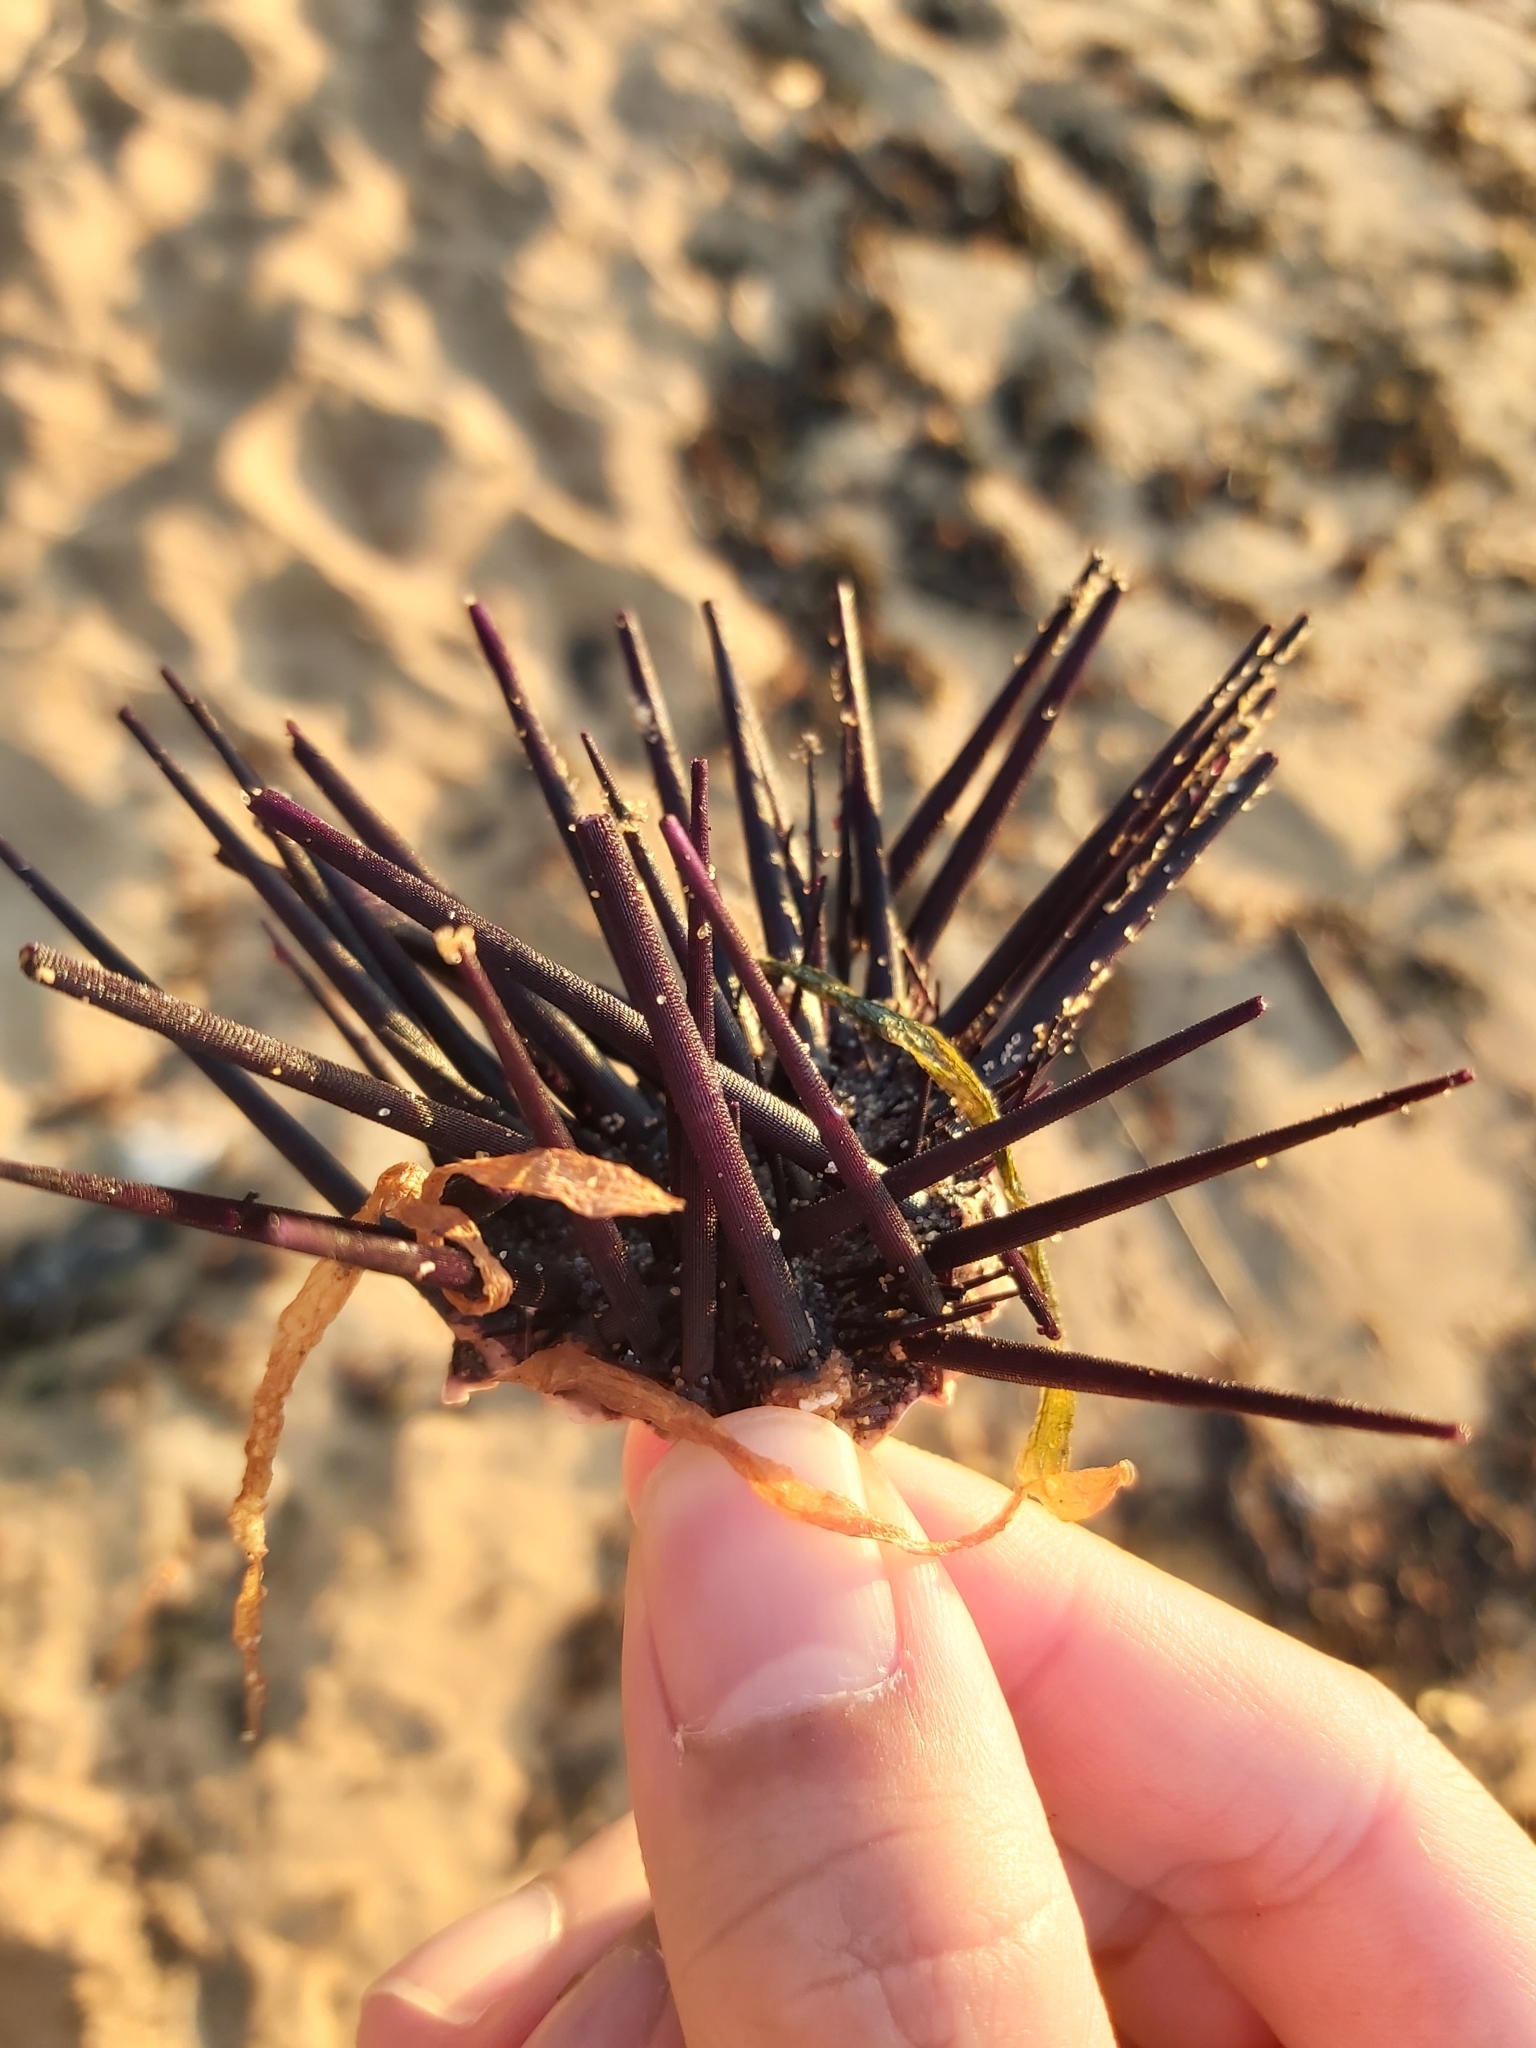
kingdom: Animalia
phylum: Echinodermata
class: Echinoidea
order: Diadematoida
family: Diadematidae
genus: Centrostephanus
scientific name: Centrostephanus rodgersii
